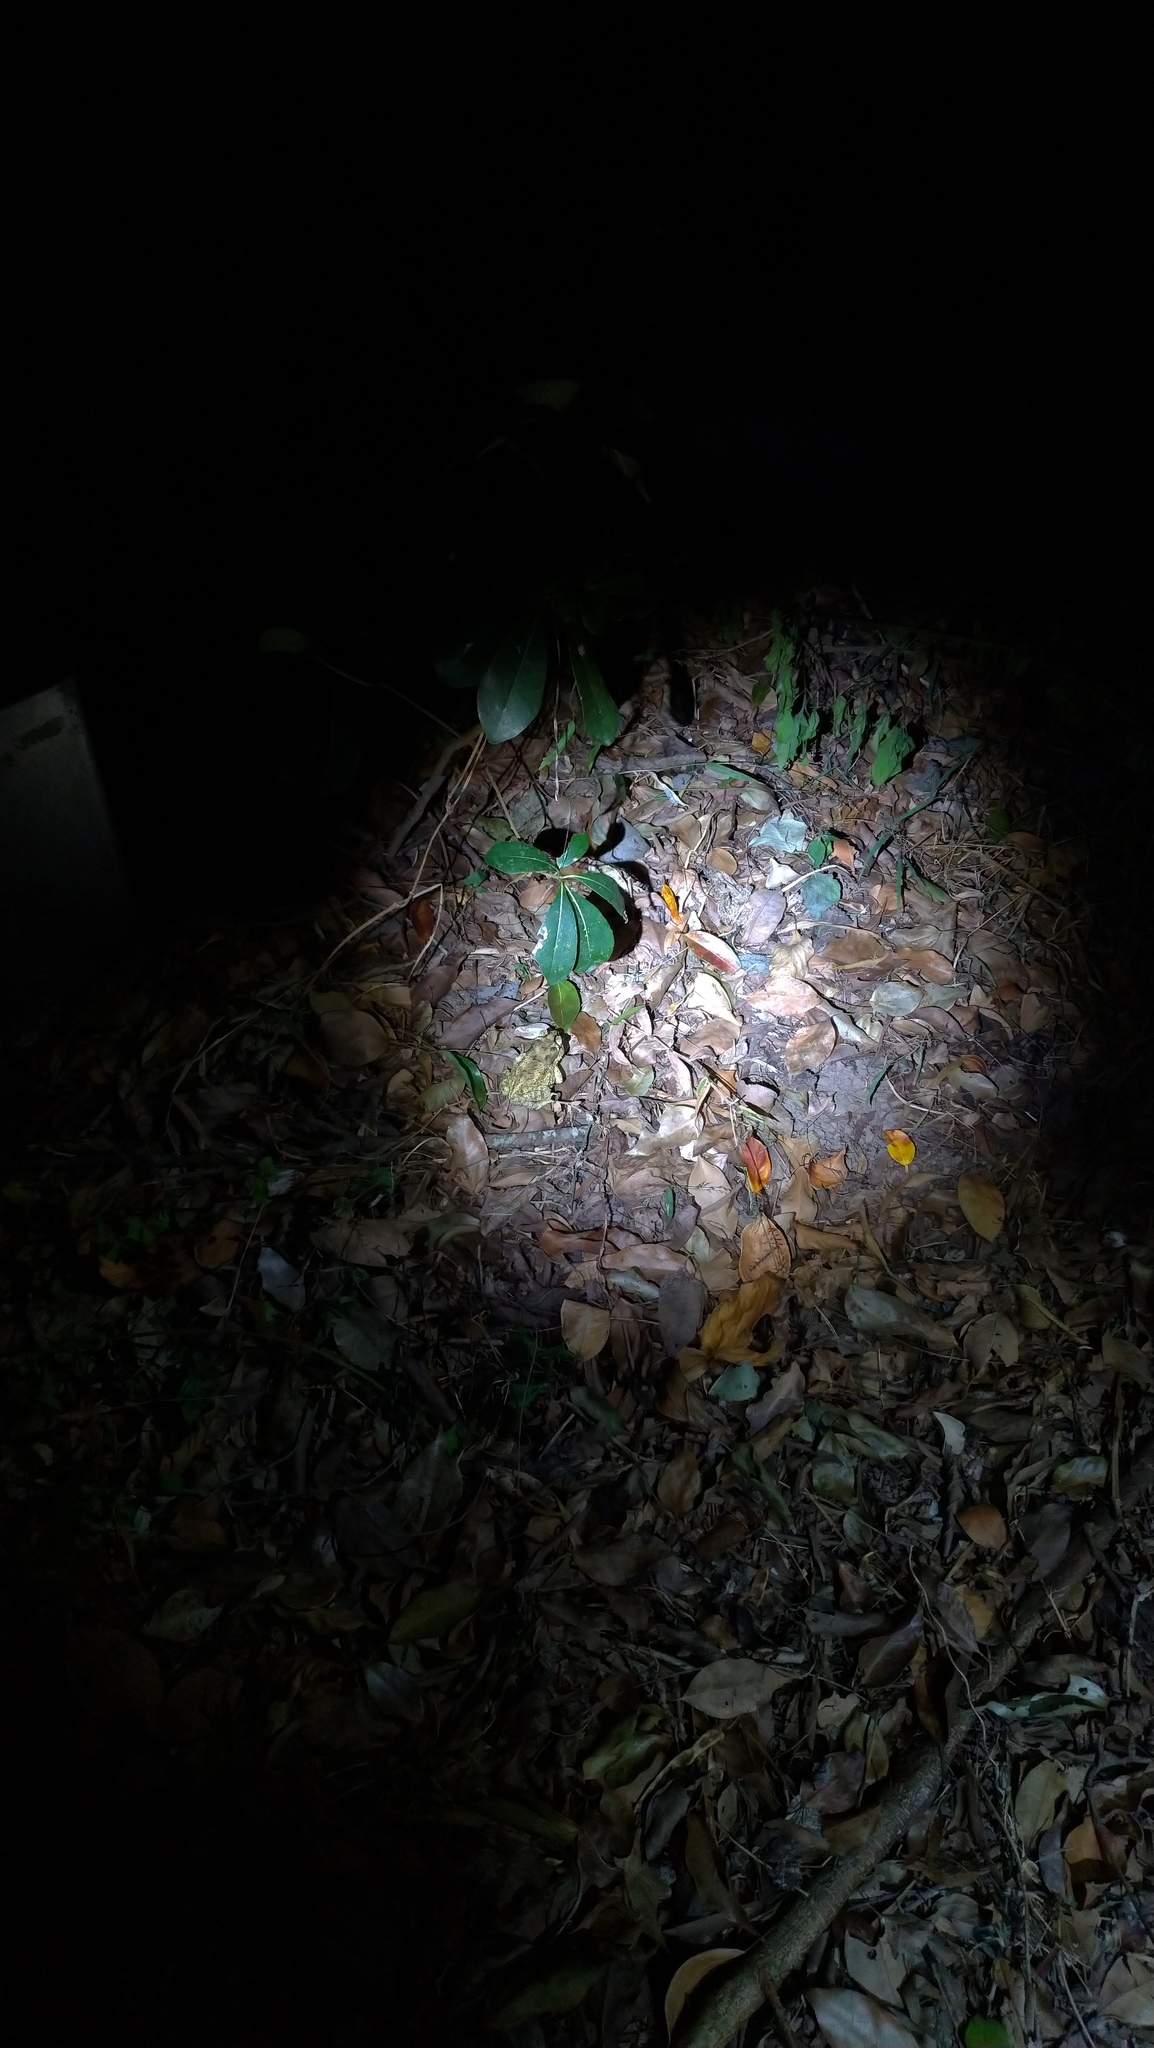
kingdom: Animalia
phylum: Chordata
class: Amphibia
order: Anura
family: Bufonidae
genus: Duttaphrynus
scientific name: Duttaphrynus melanostictus
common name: Common sunda toad
